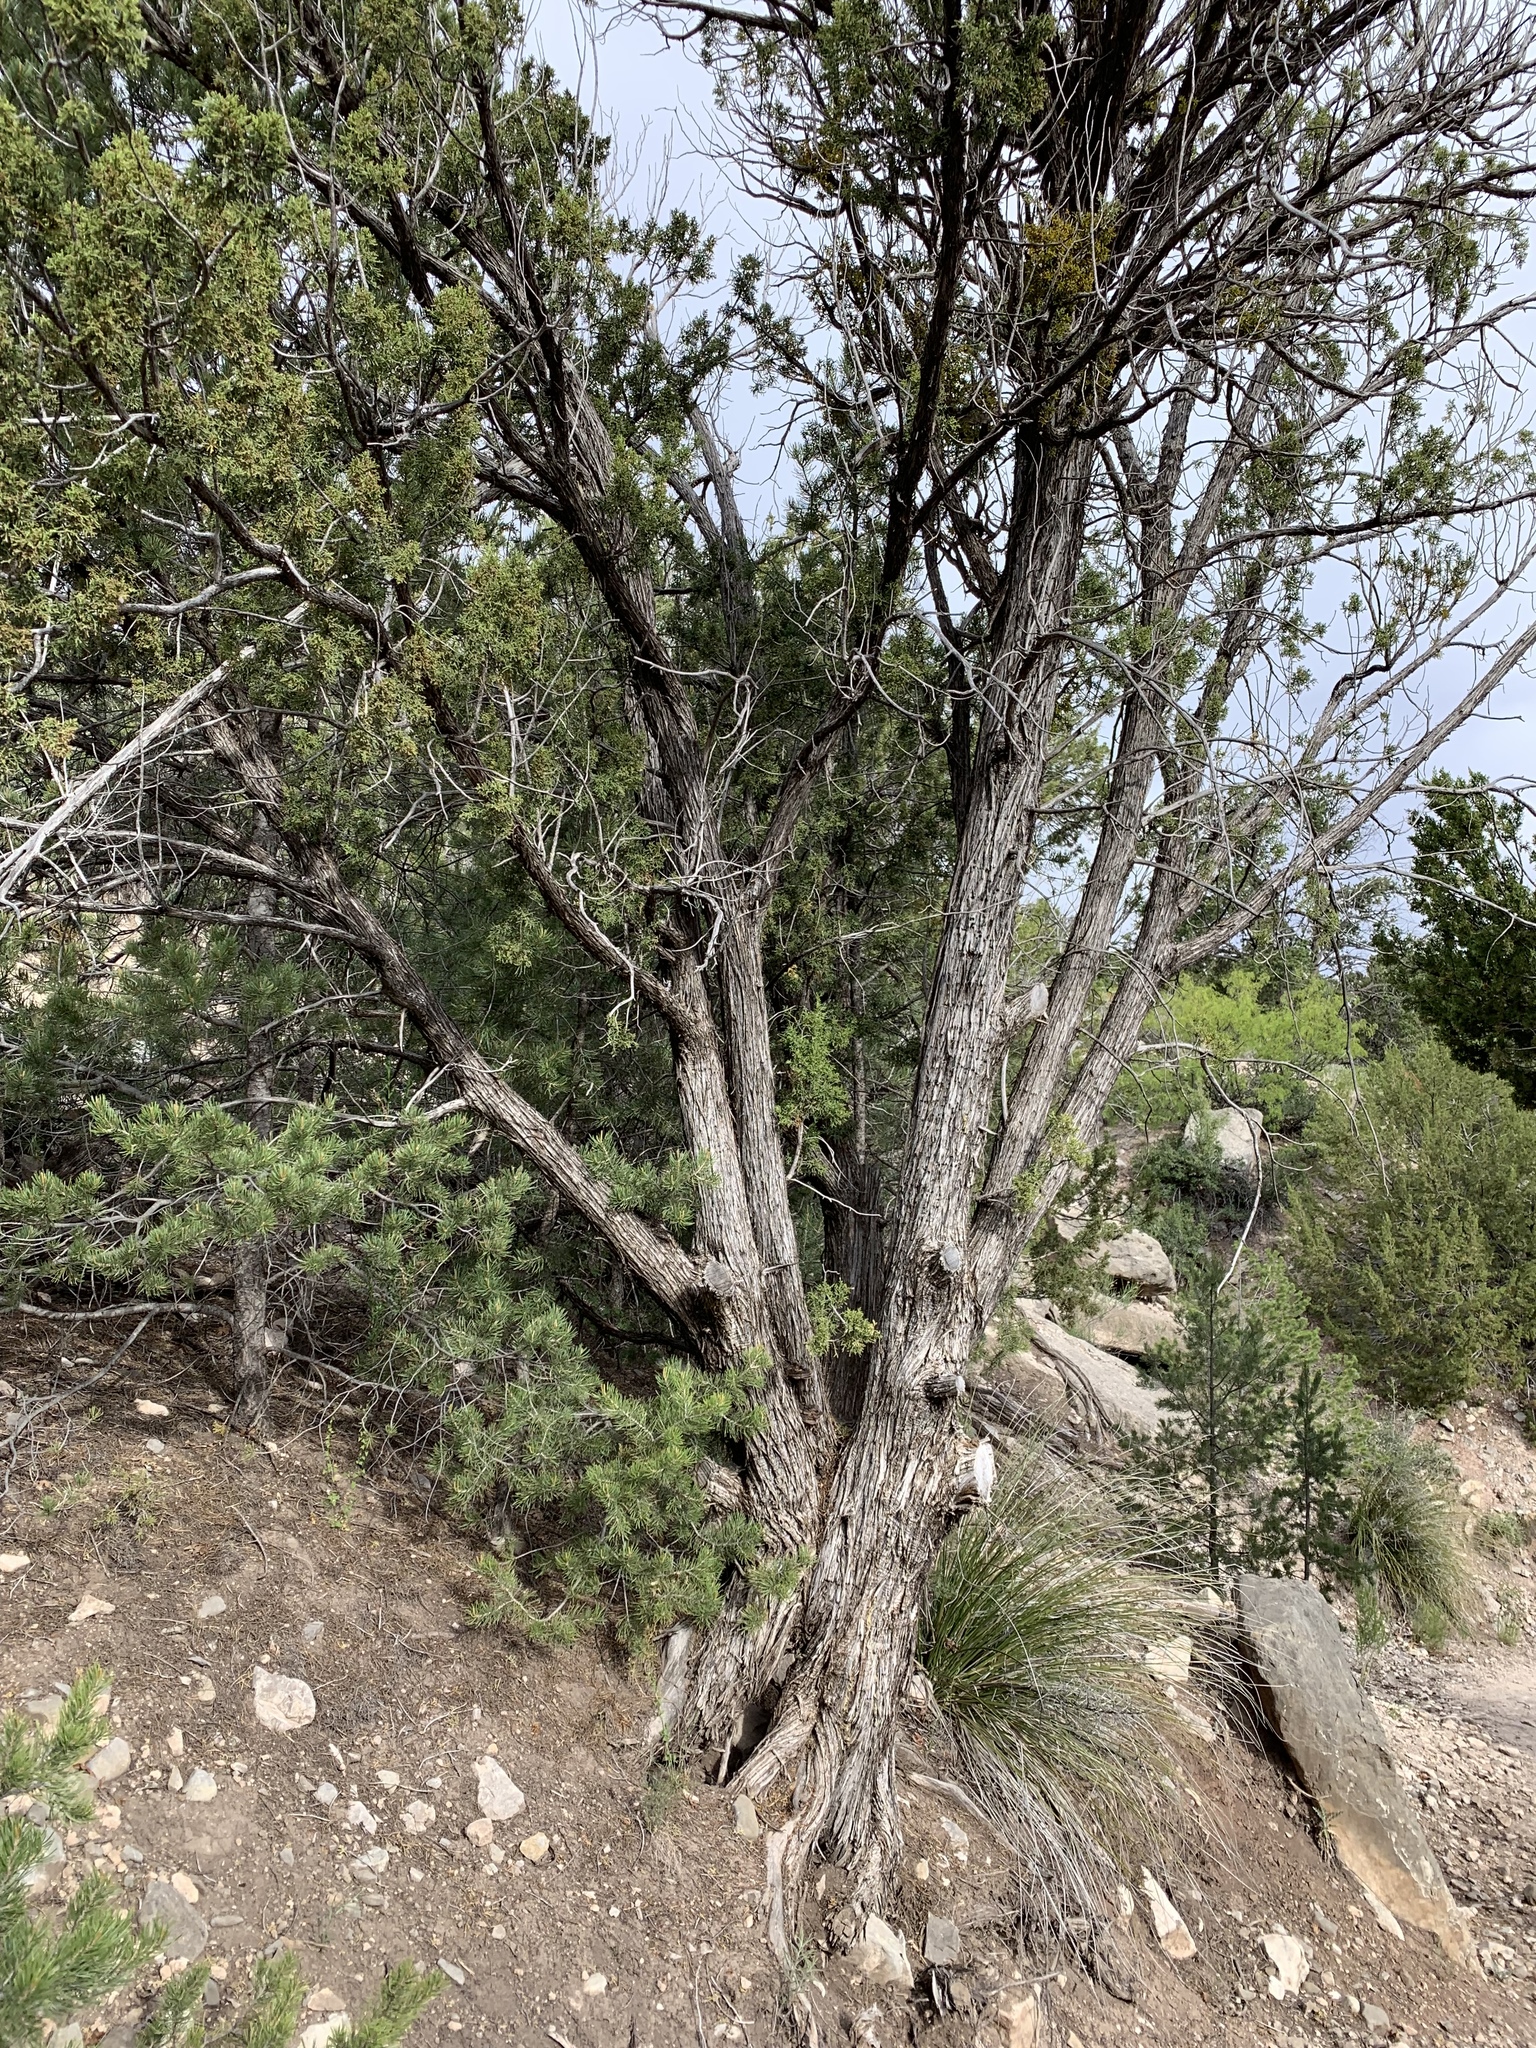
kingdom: Plantae
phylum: Tracheophyta
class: Pinopsida
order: Pinales
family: Cupressaceae
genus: Juniperus
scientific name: Juniperus monosperma
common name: One-seed juniper
